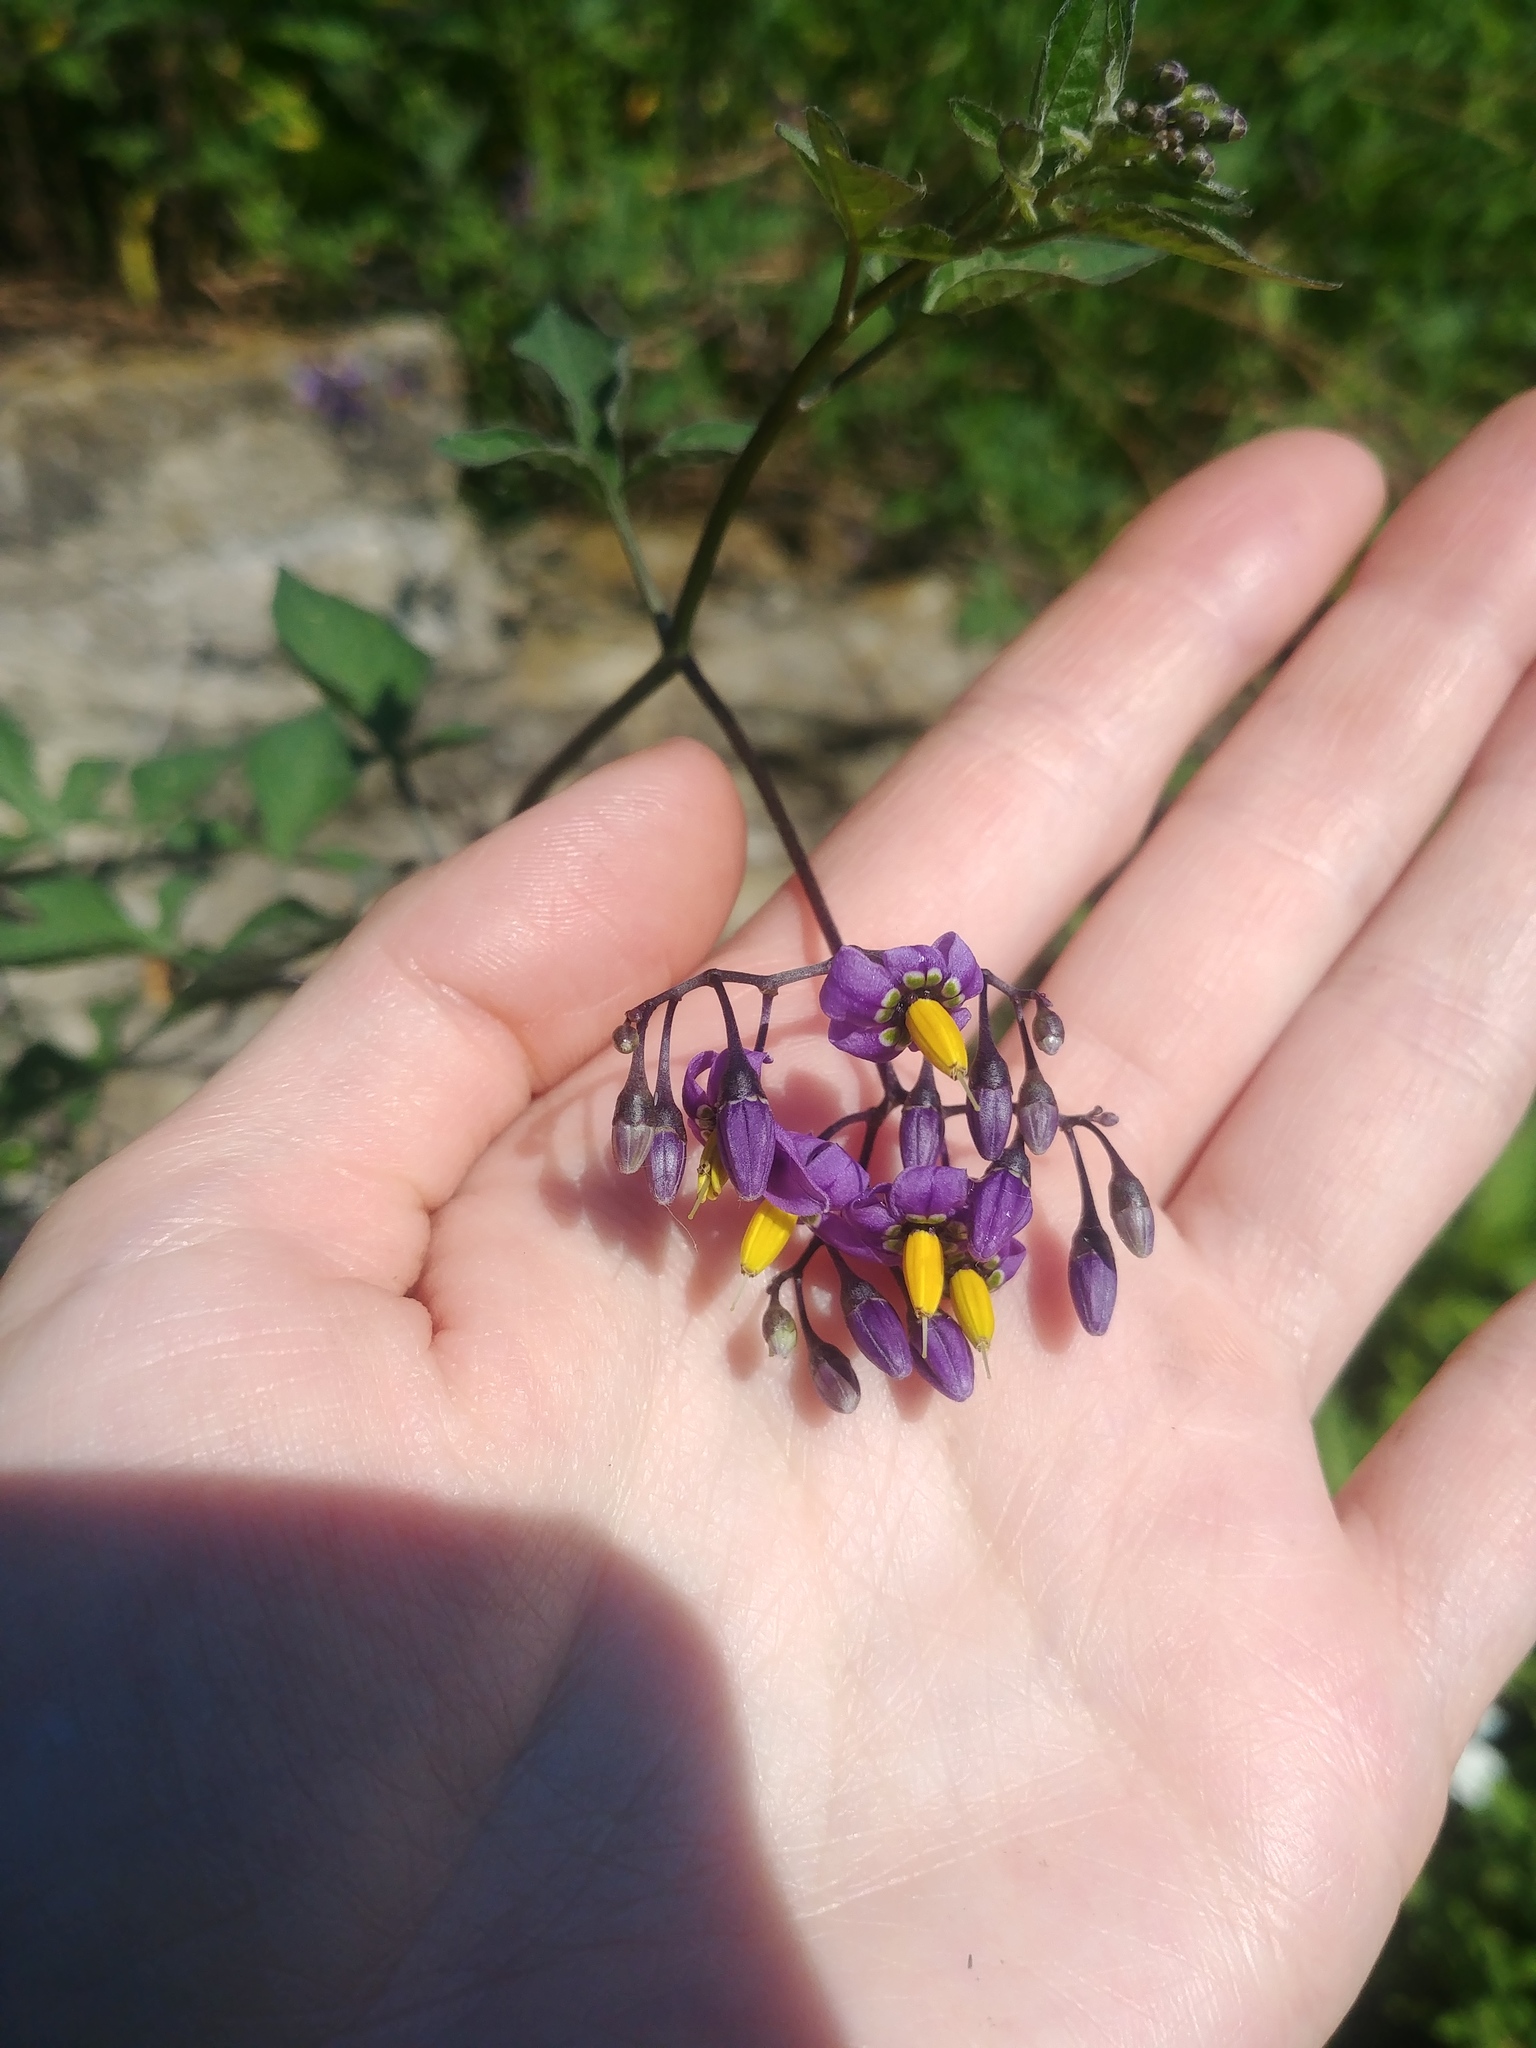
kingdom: Plantae
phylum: Tracheophyta
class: Magnoliopsida
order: Solanales
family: Solanaceae
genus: Solanum
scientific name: Solanum dulcamara
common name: Climbing nightshade
